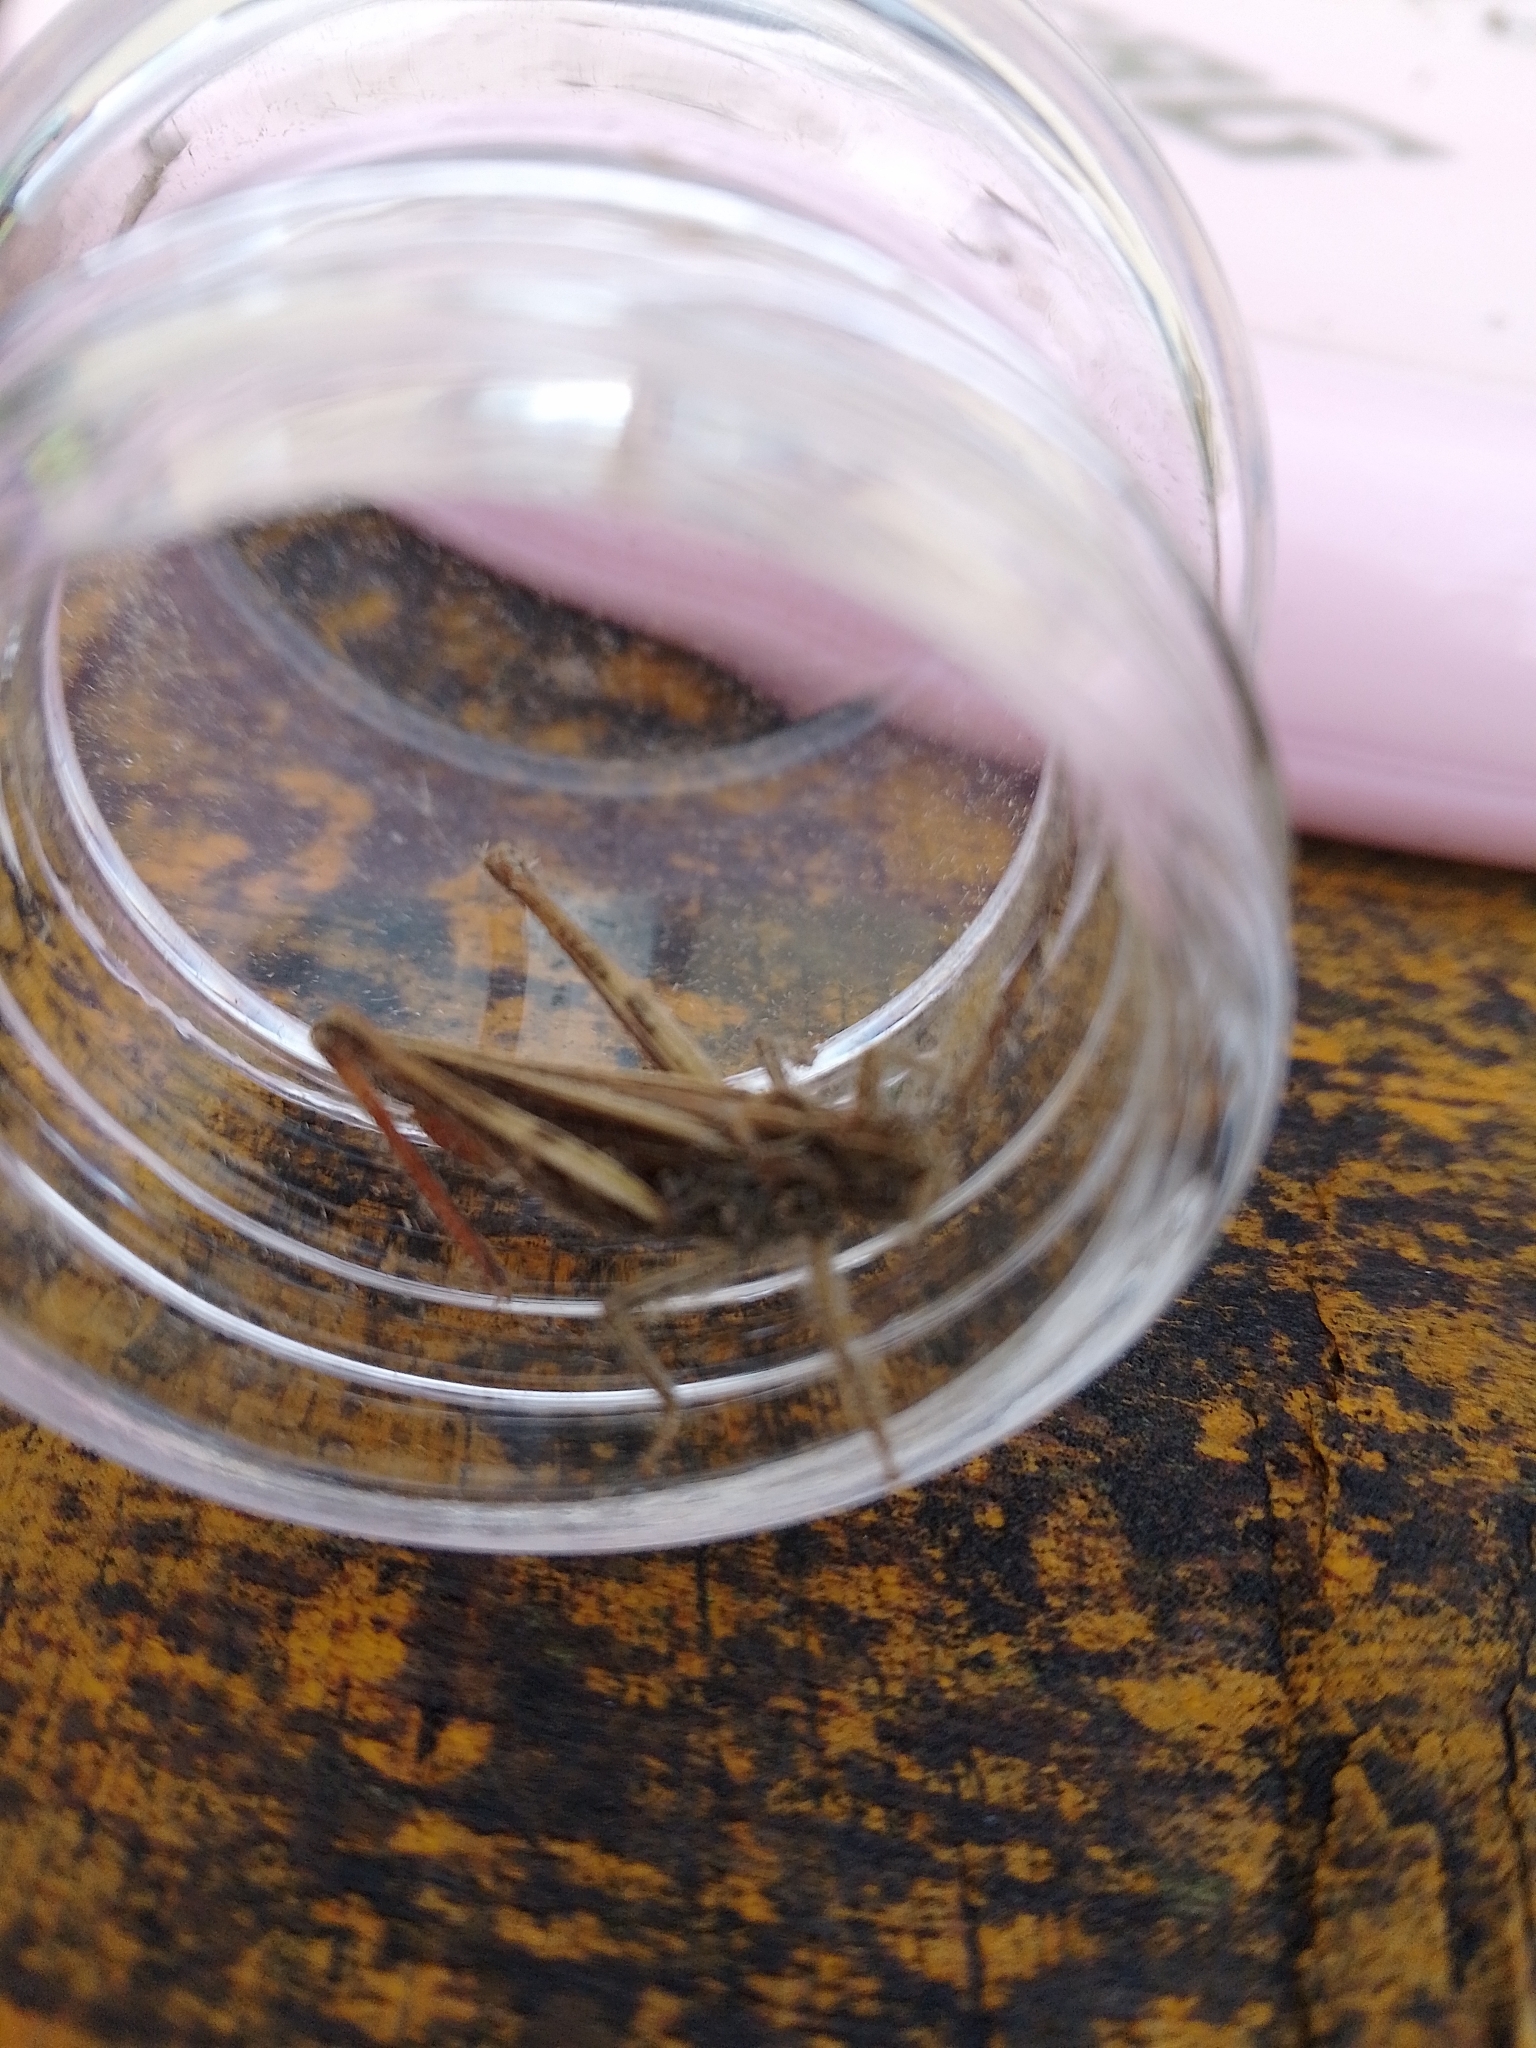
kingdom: Animalia
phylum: Arthropoda
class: Insecta
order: Orthoptera
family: Acrididae
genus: Chorthippus
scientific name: Chorthippus brunneus
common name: Field grasshopper
